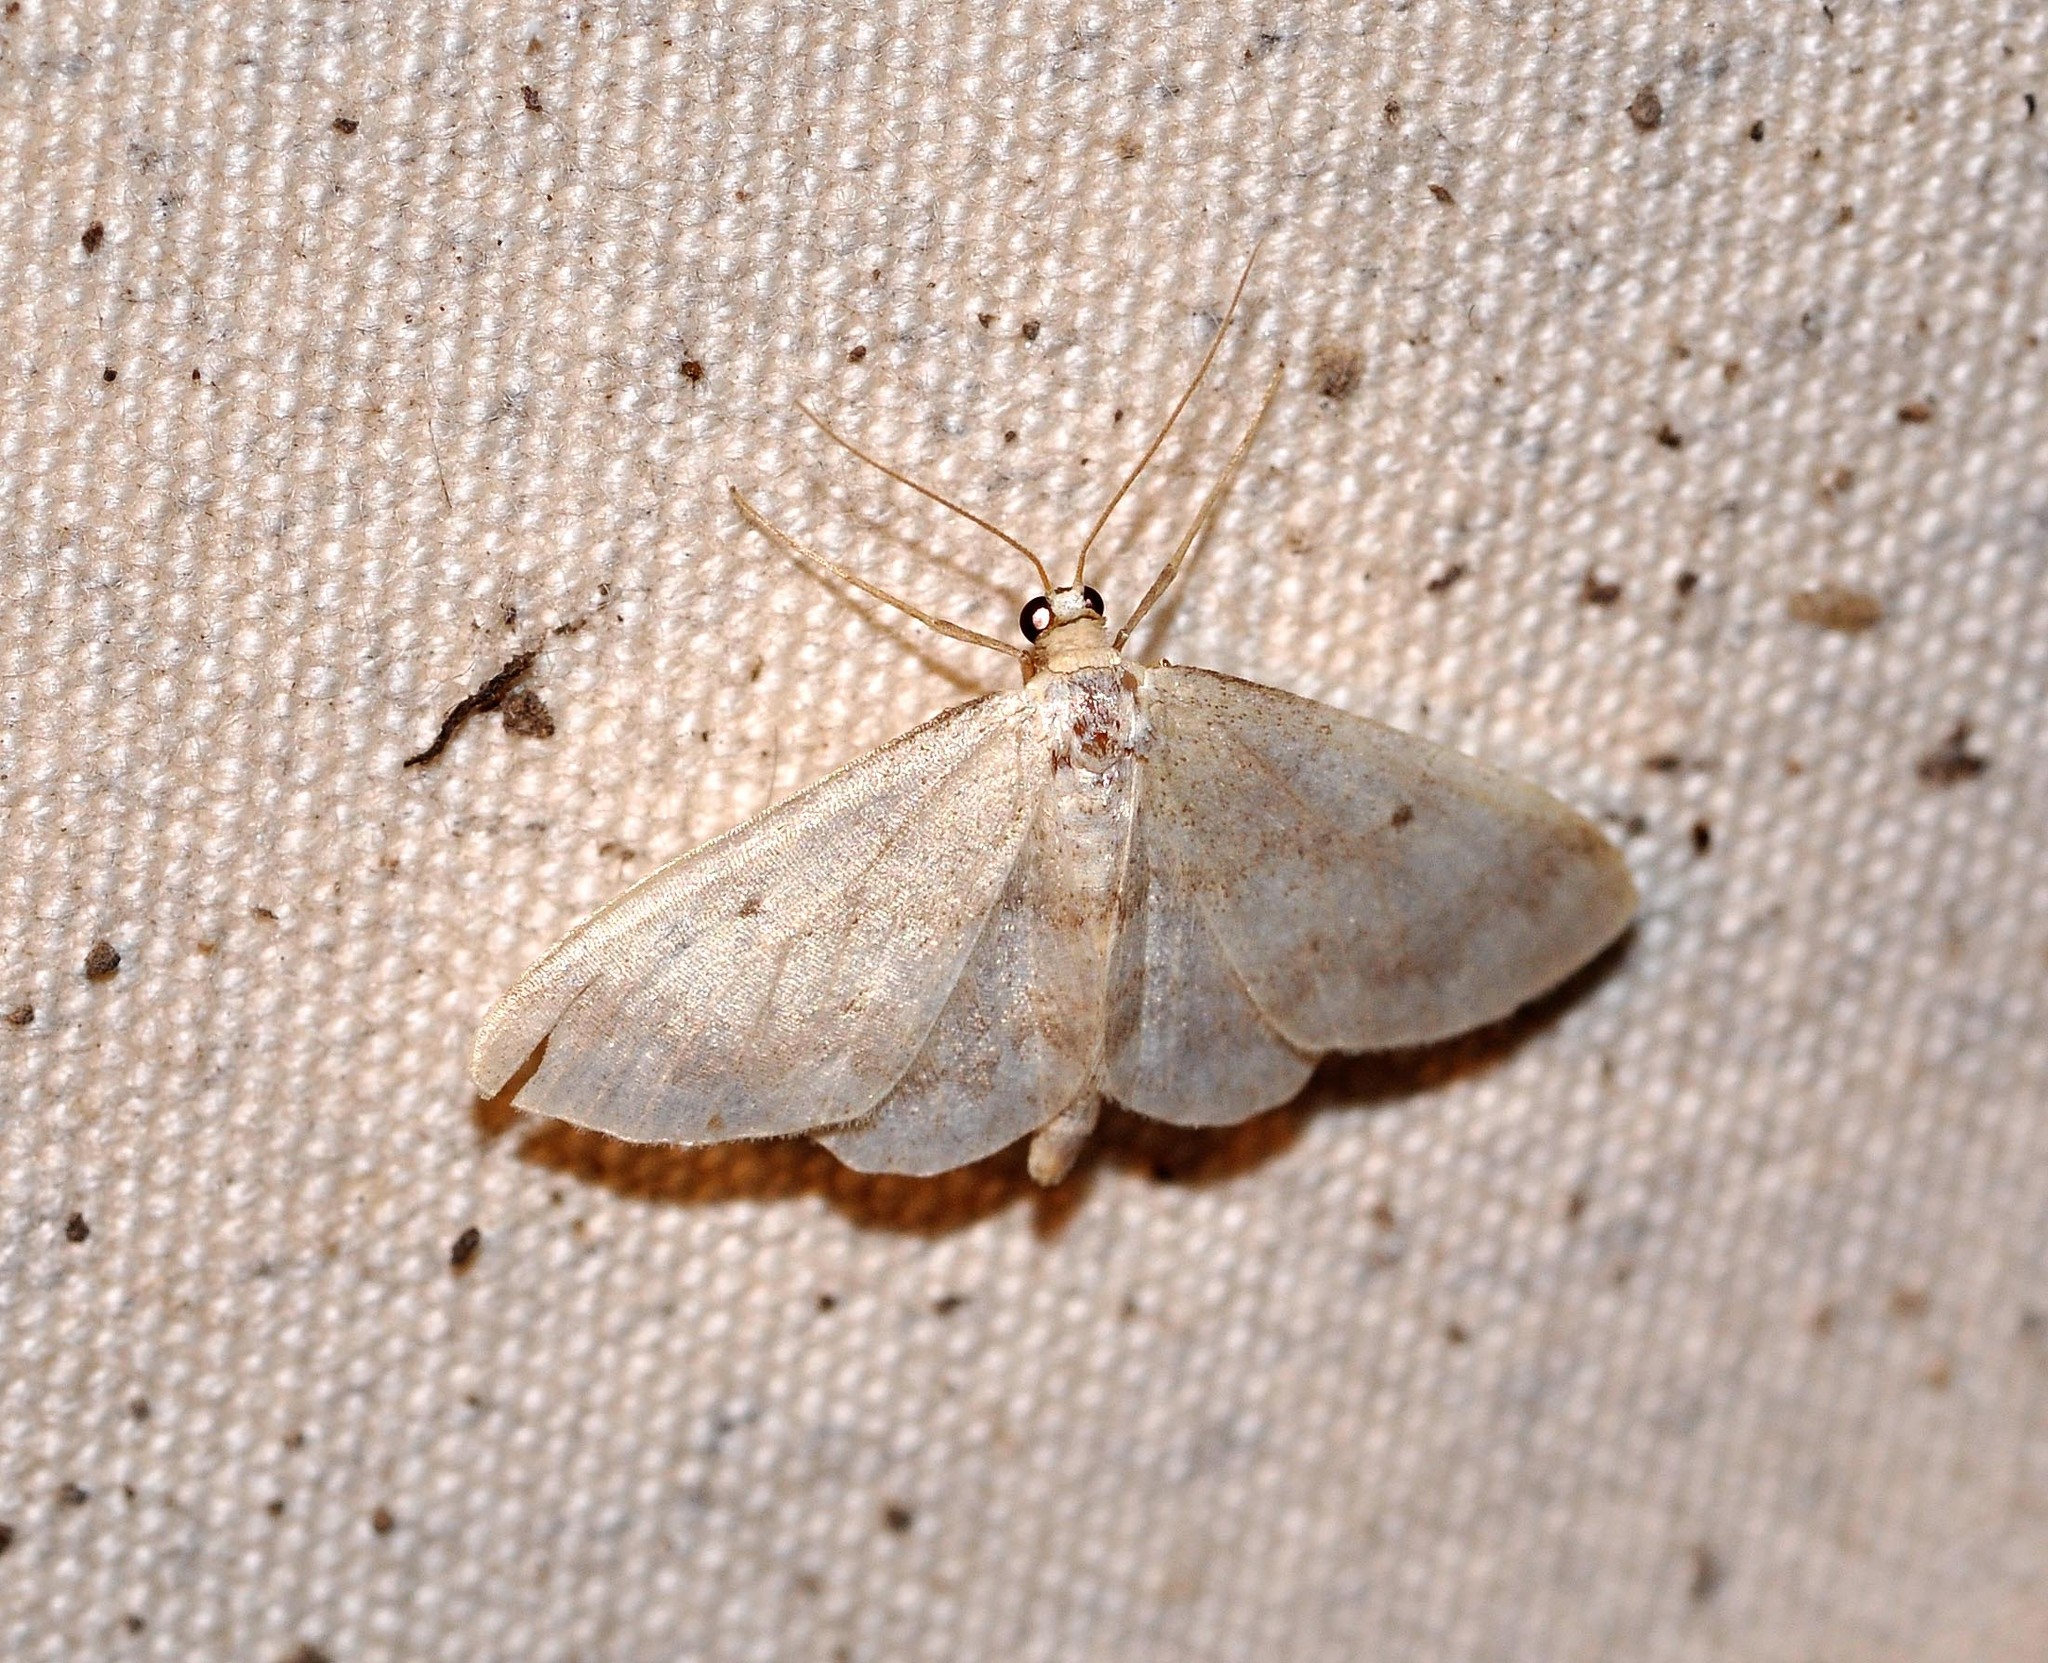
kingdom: Animalia
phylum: Arthropoda
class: Insecta
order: Lepidoptera
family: Geometridae
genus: Idaea
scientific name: Idaea biselata
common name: Small fan-footed wave
